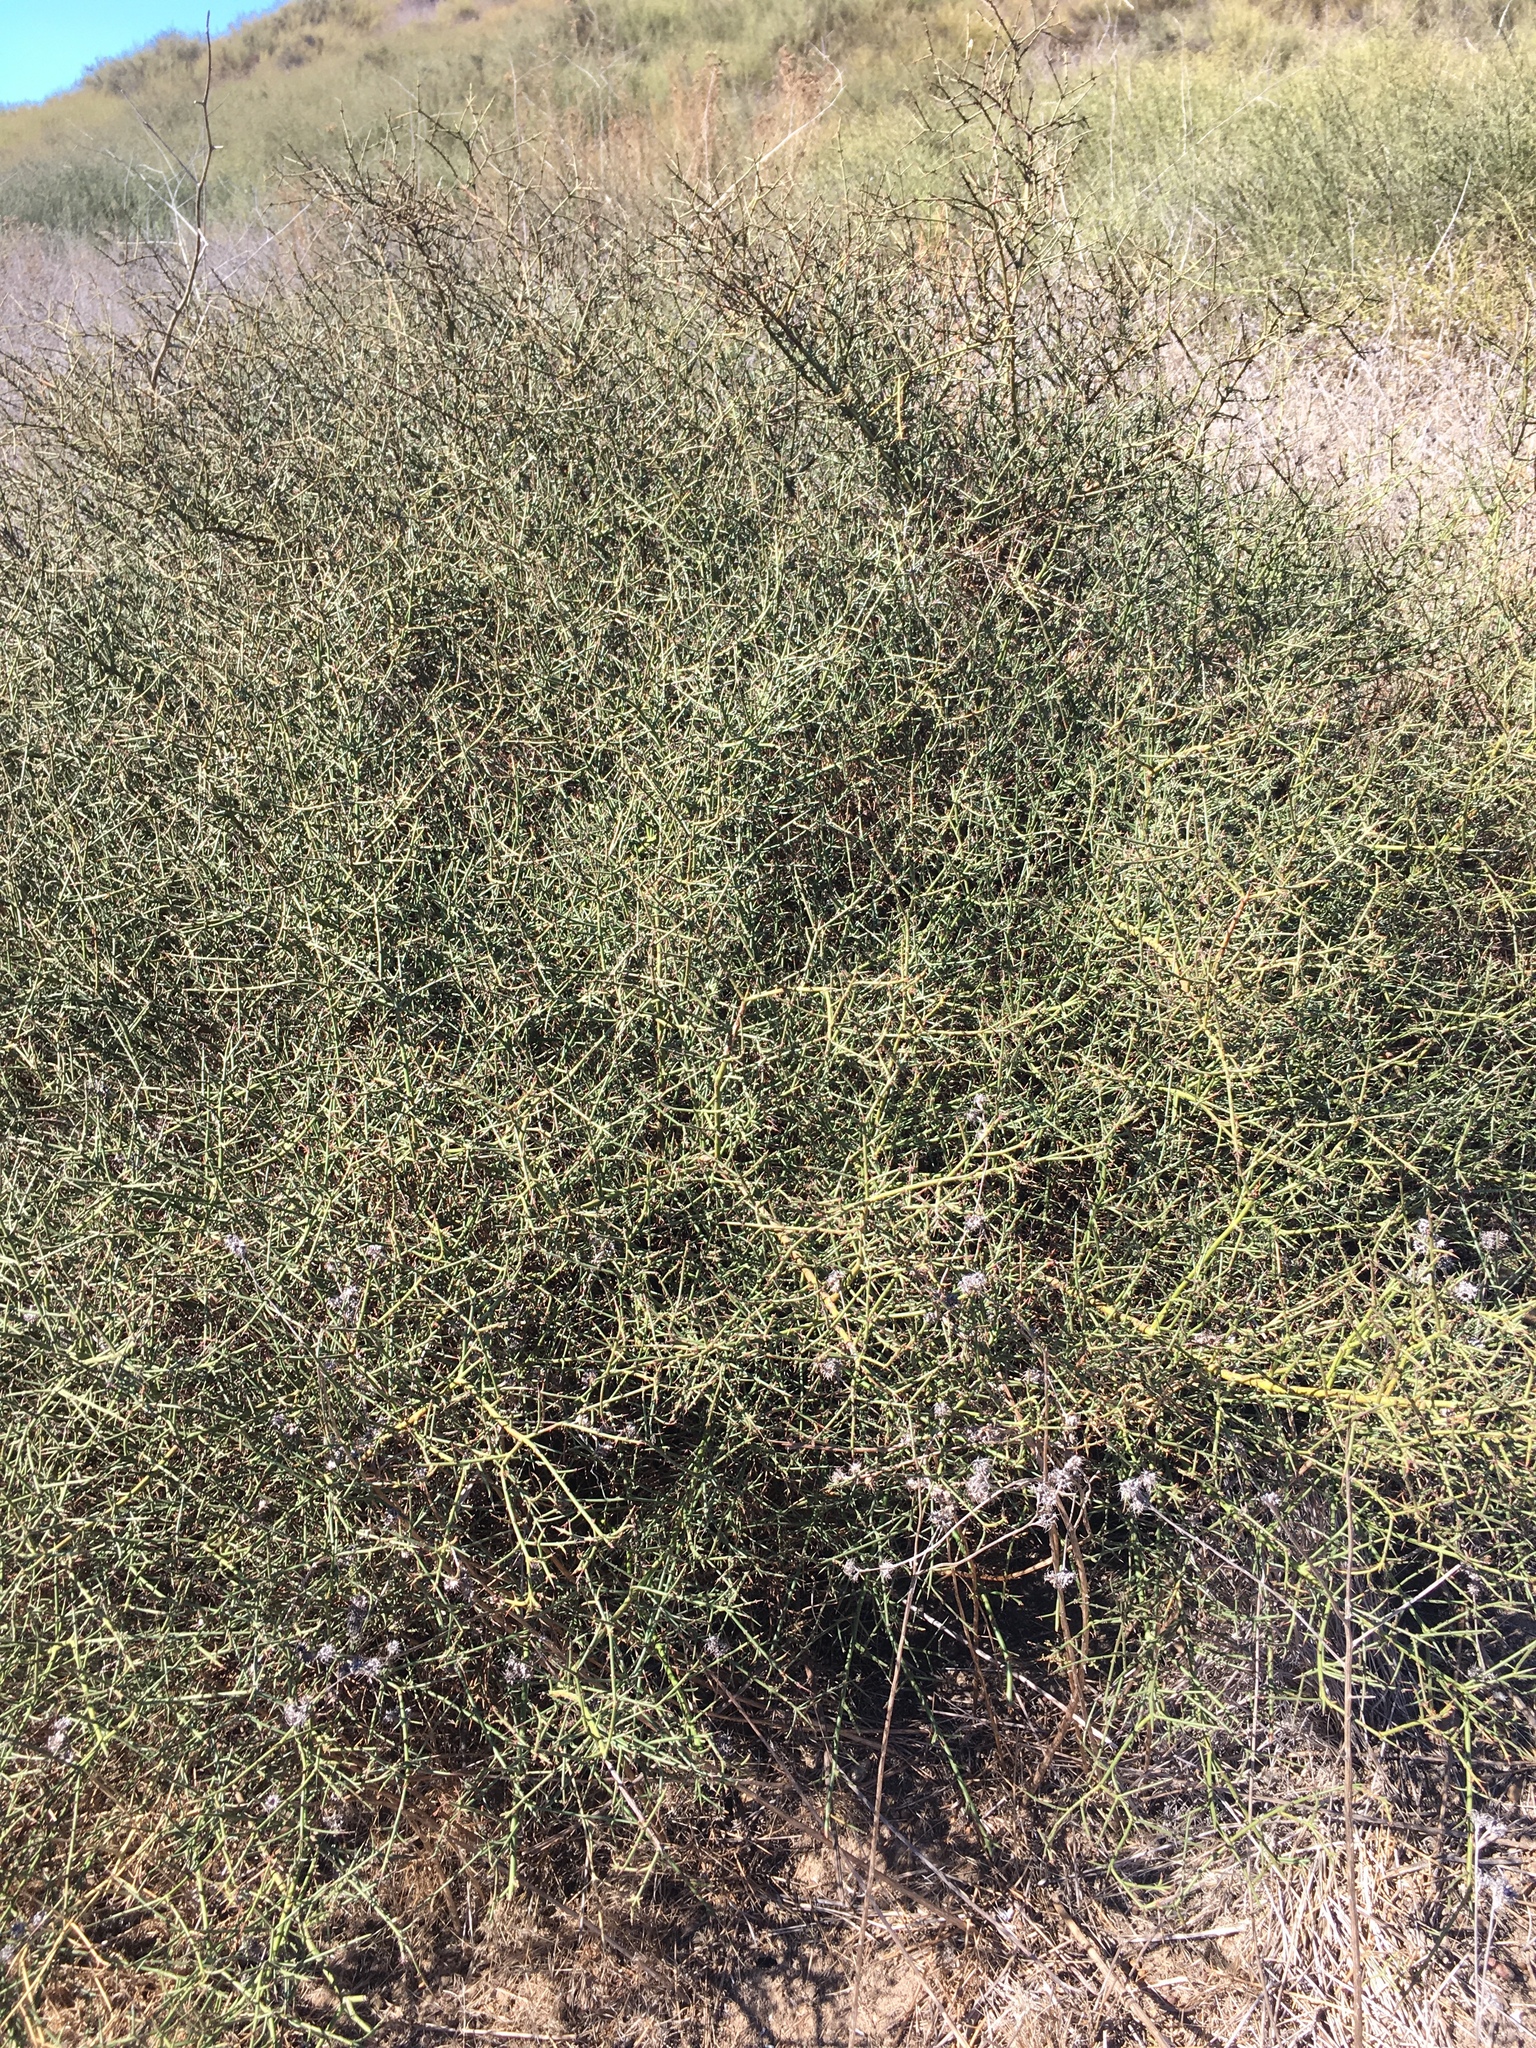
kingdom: Plantae
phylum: Tracheophyta
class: Magnoliopsida
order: Rosales
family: Rhamnaceae
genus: Adolphia
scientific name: Adolphia californica
